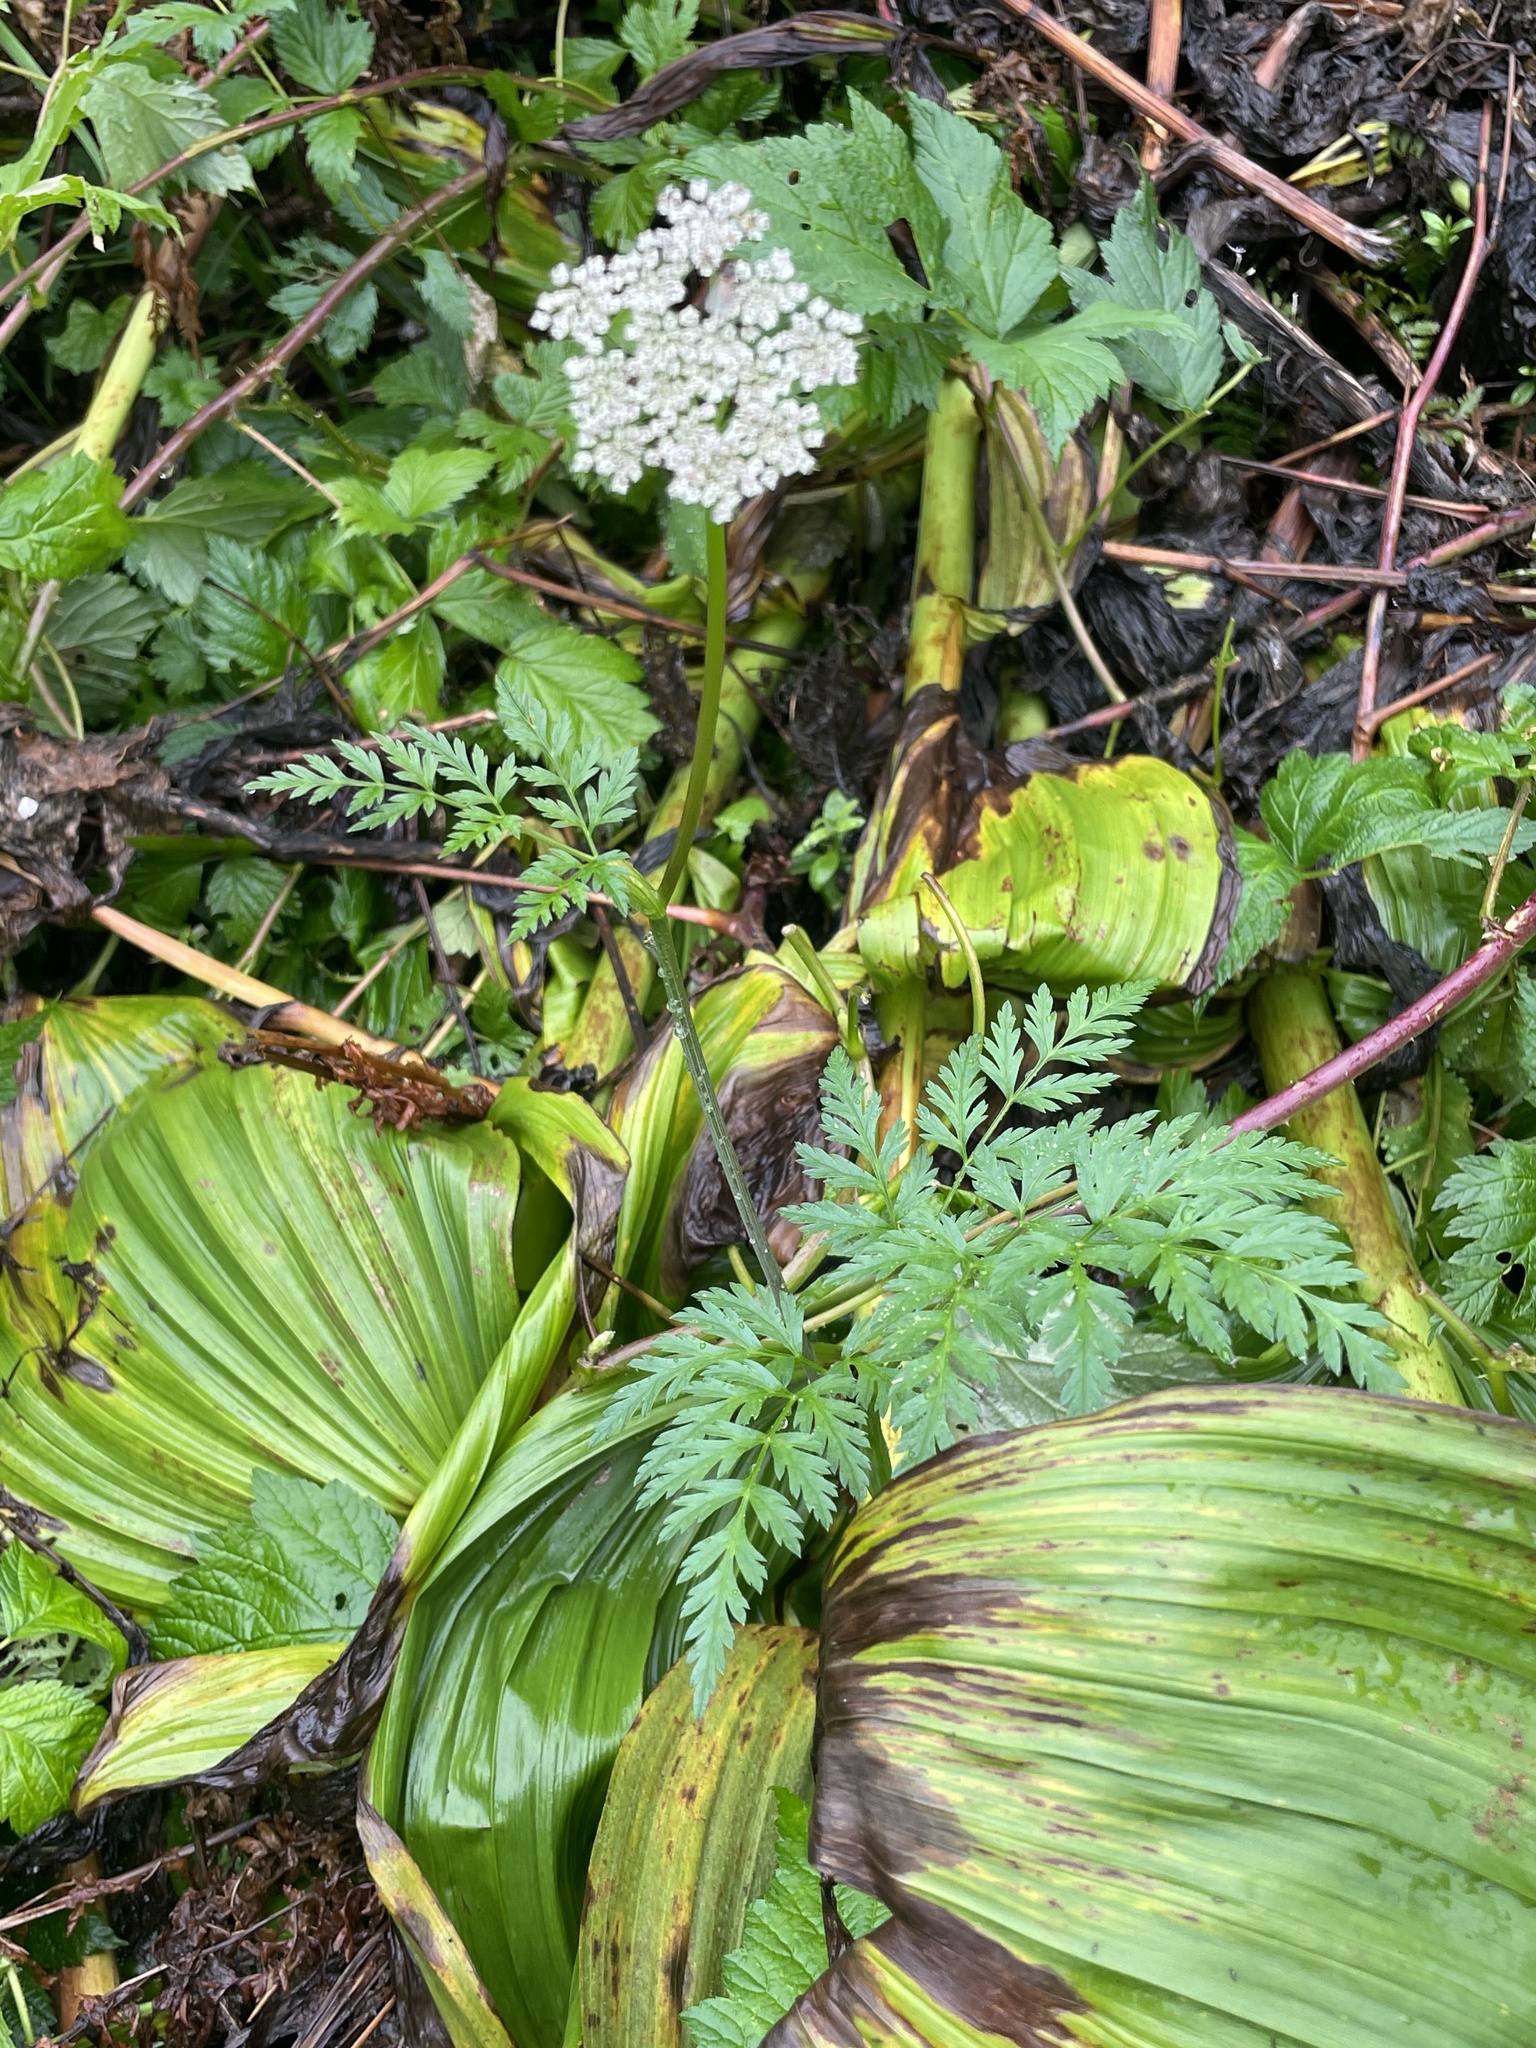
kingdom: Plantae
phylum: Tracheophyta
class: Magnoliopsida
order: Apiales
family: Apiaceae
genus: Angelica
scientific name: Angelica genuflexa
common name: Kneeling angelica
